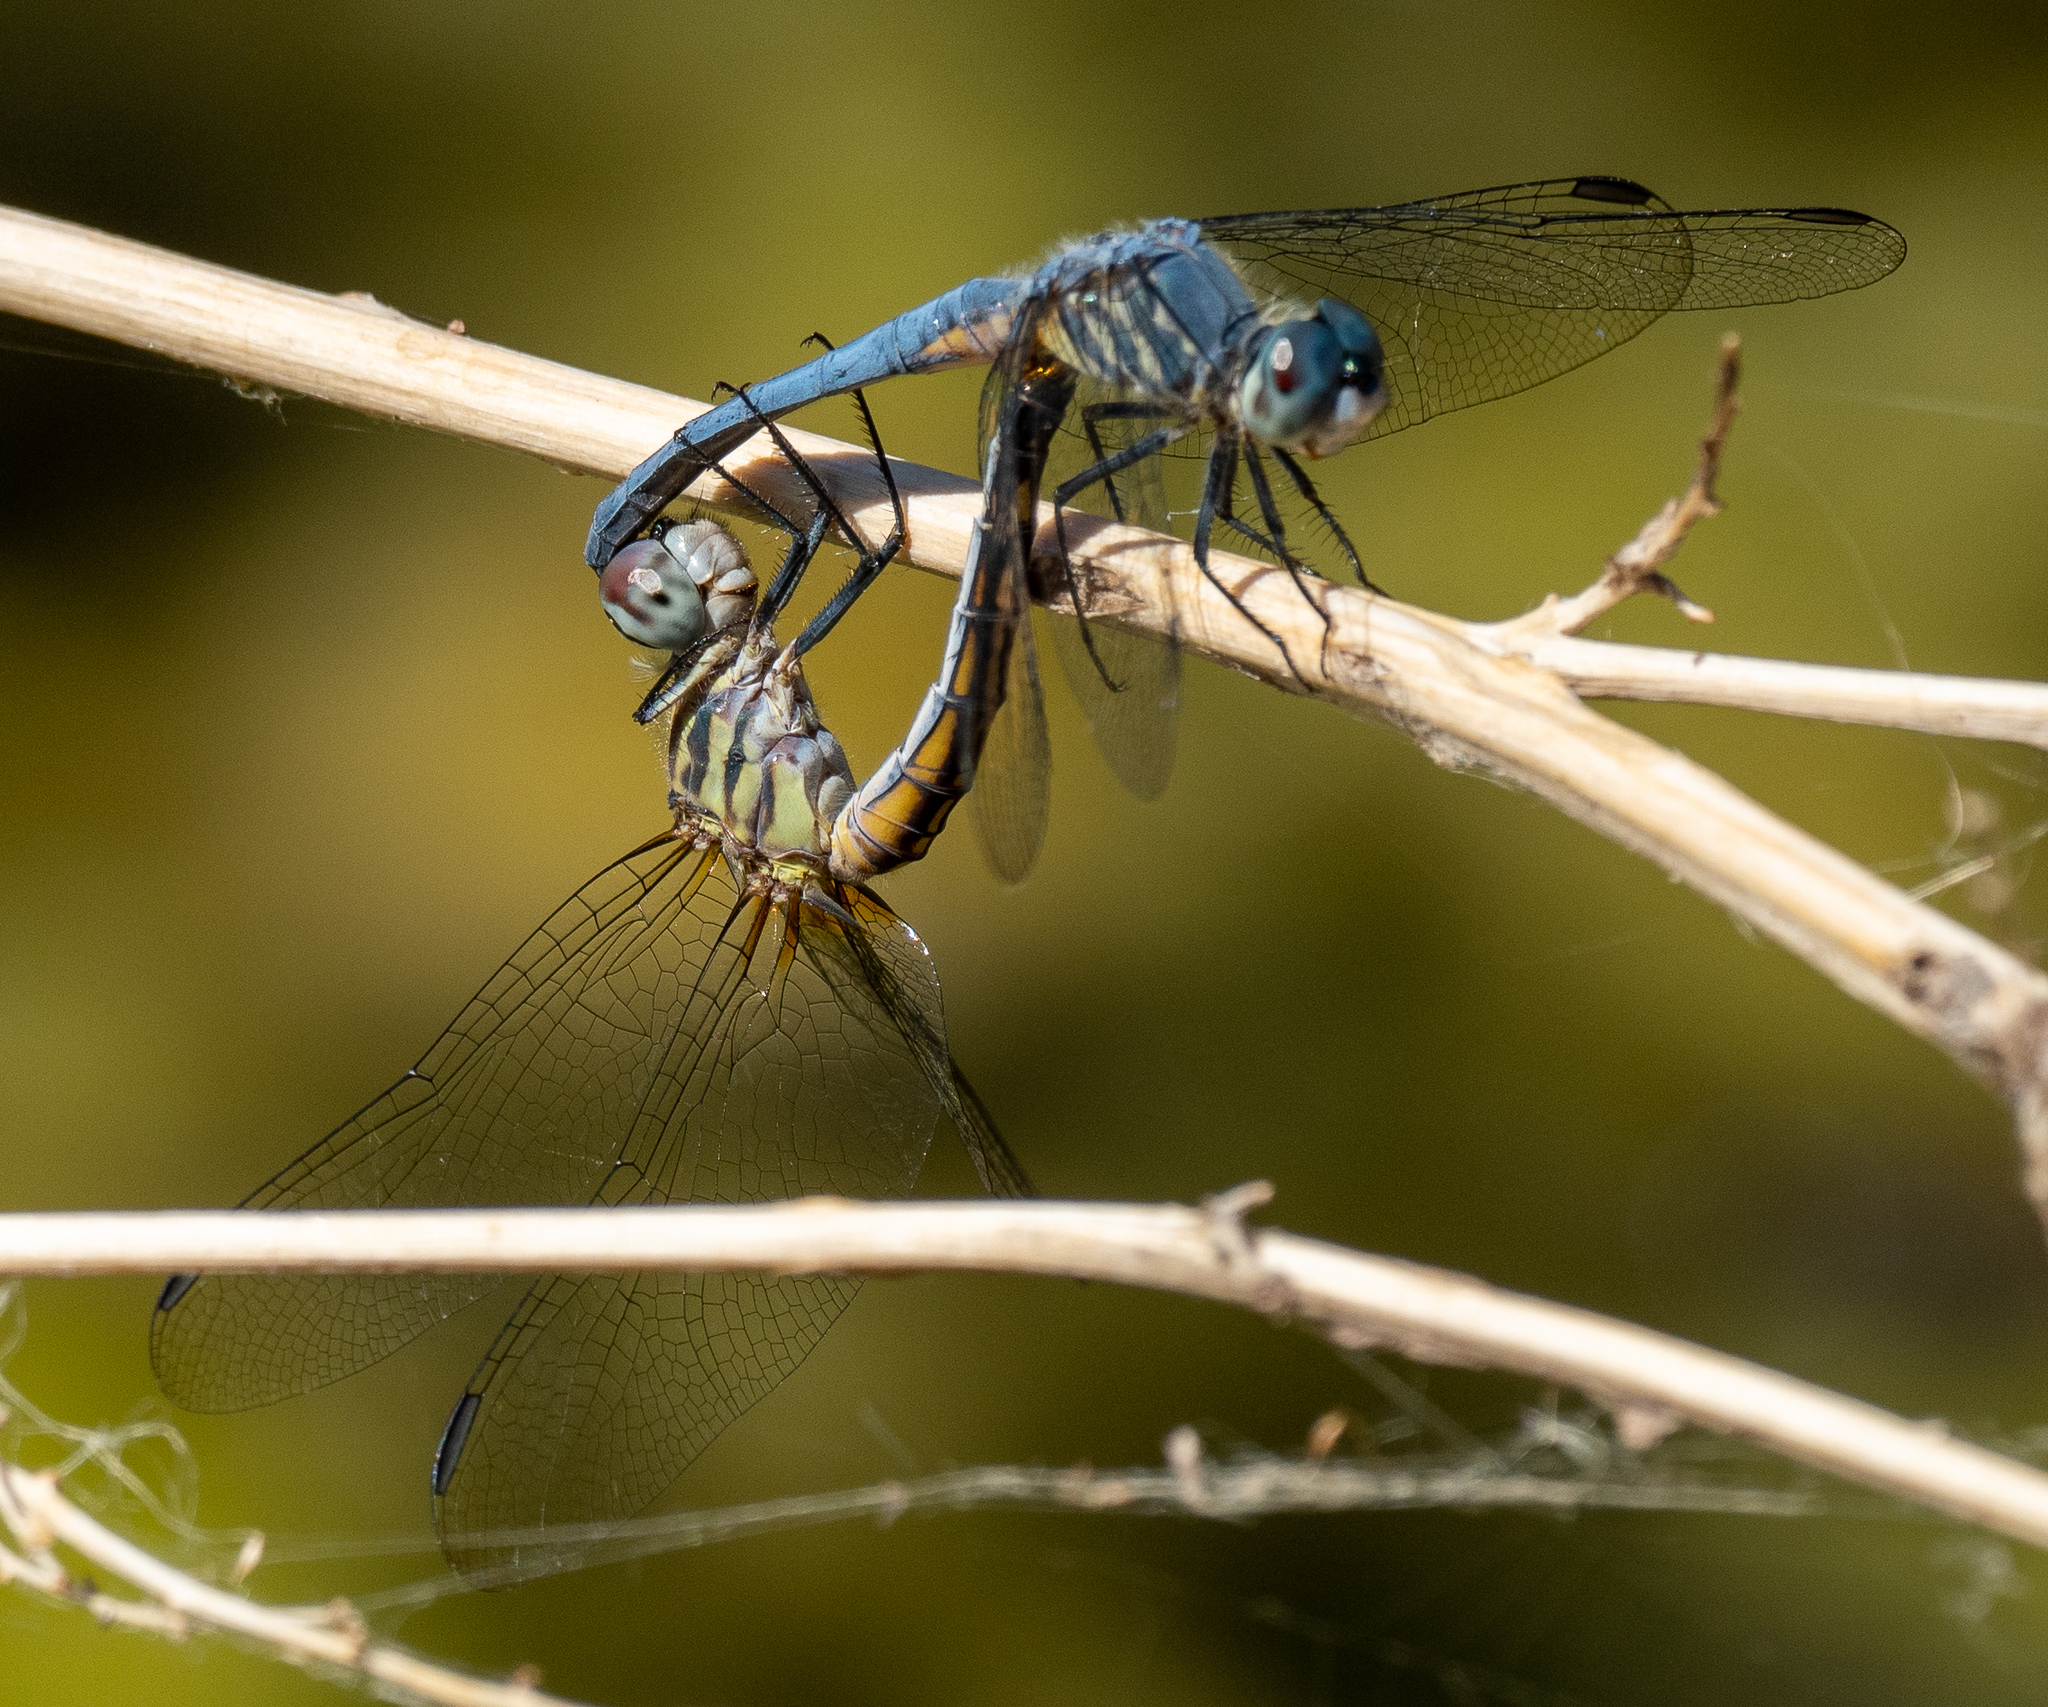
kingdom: Animalia
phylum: Arthropoda
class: Insecta
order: Odonata
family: Libellulidae
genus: Pachydiplax
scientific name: Pachydiplax longipennis
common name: Blue dasher
